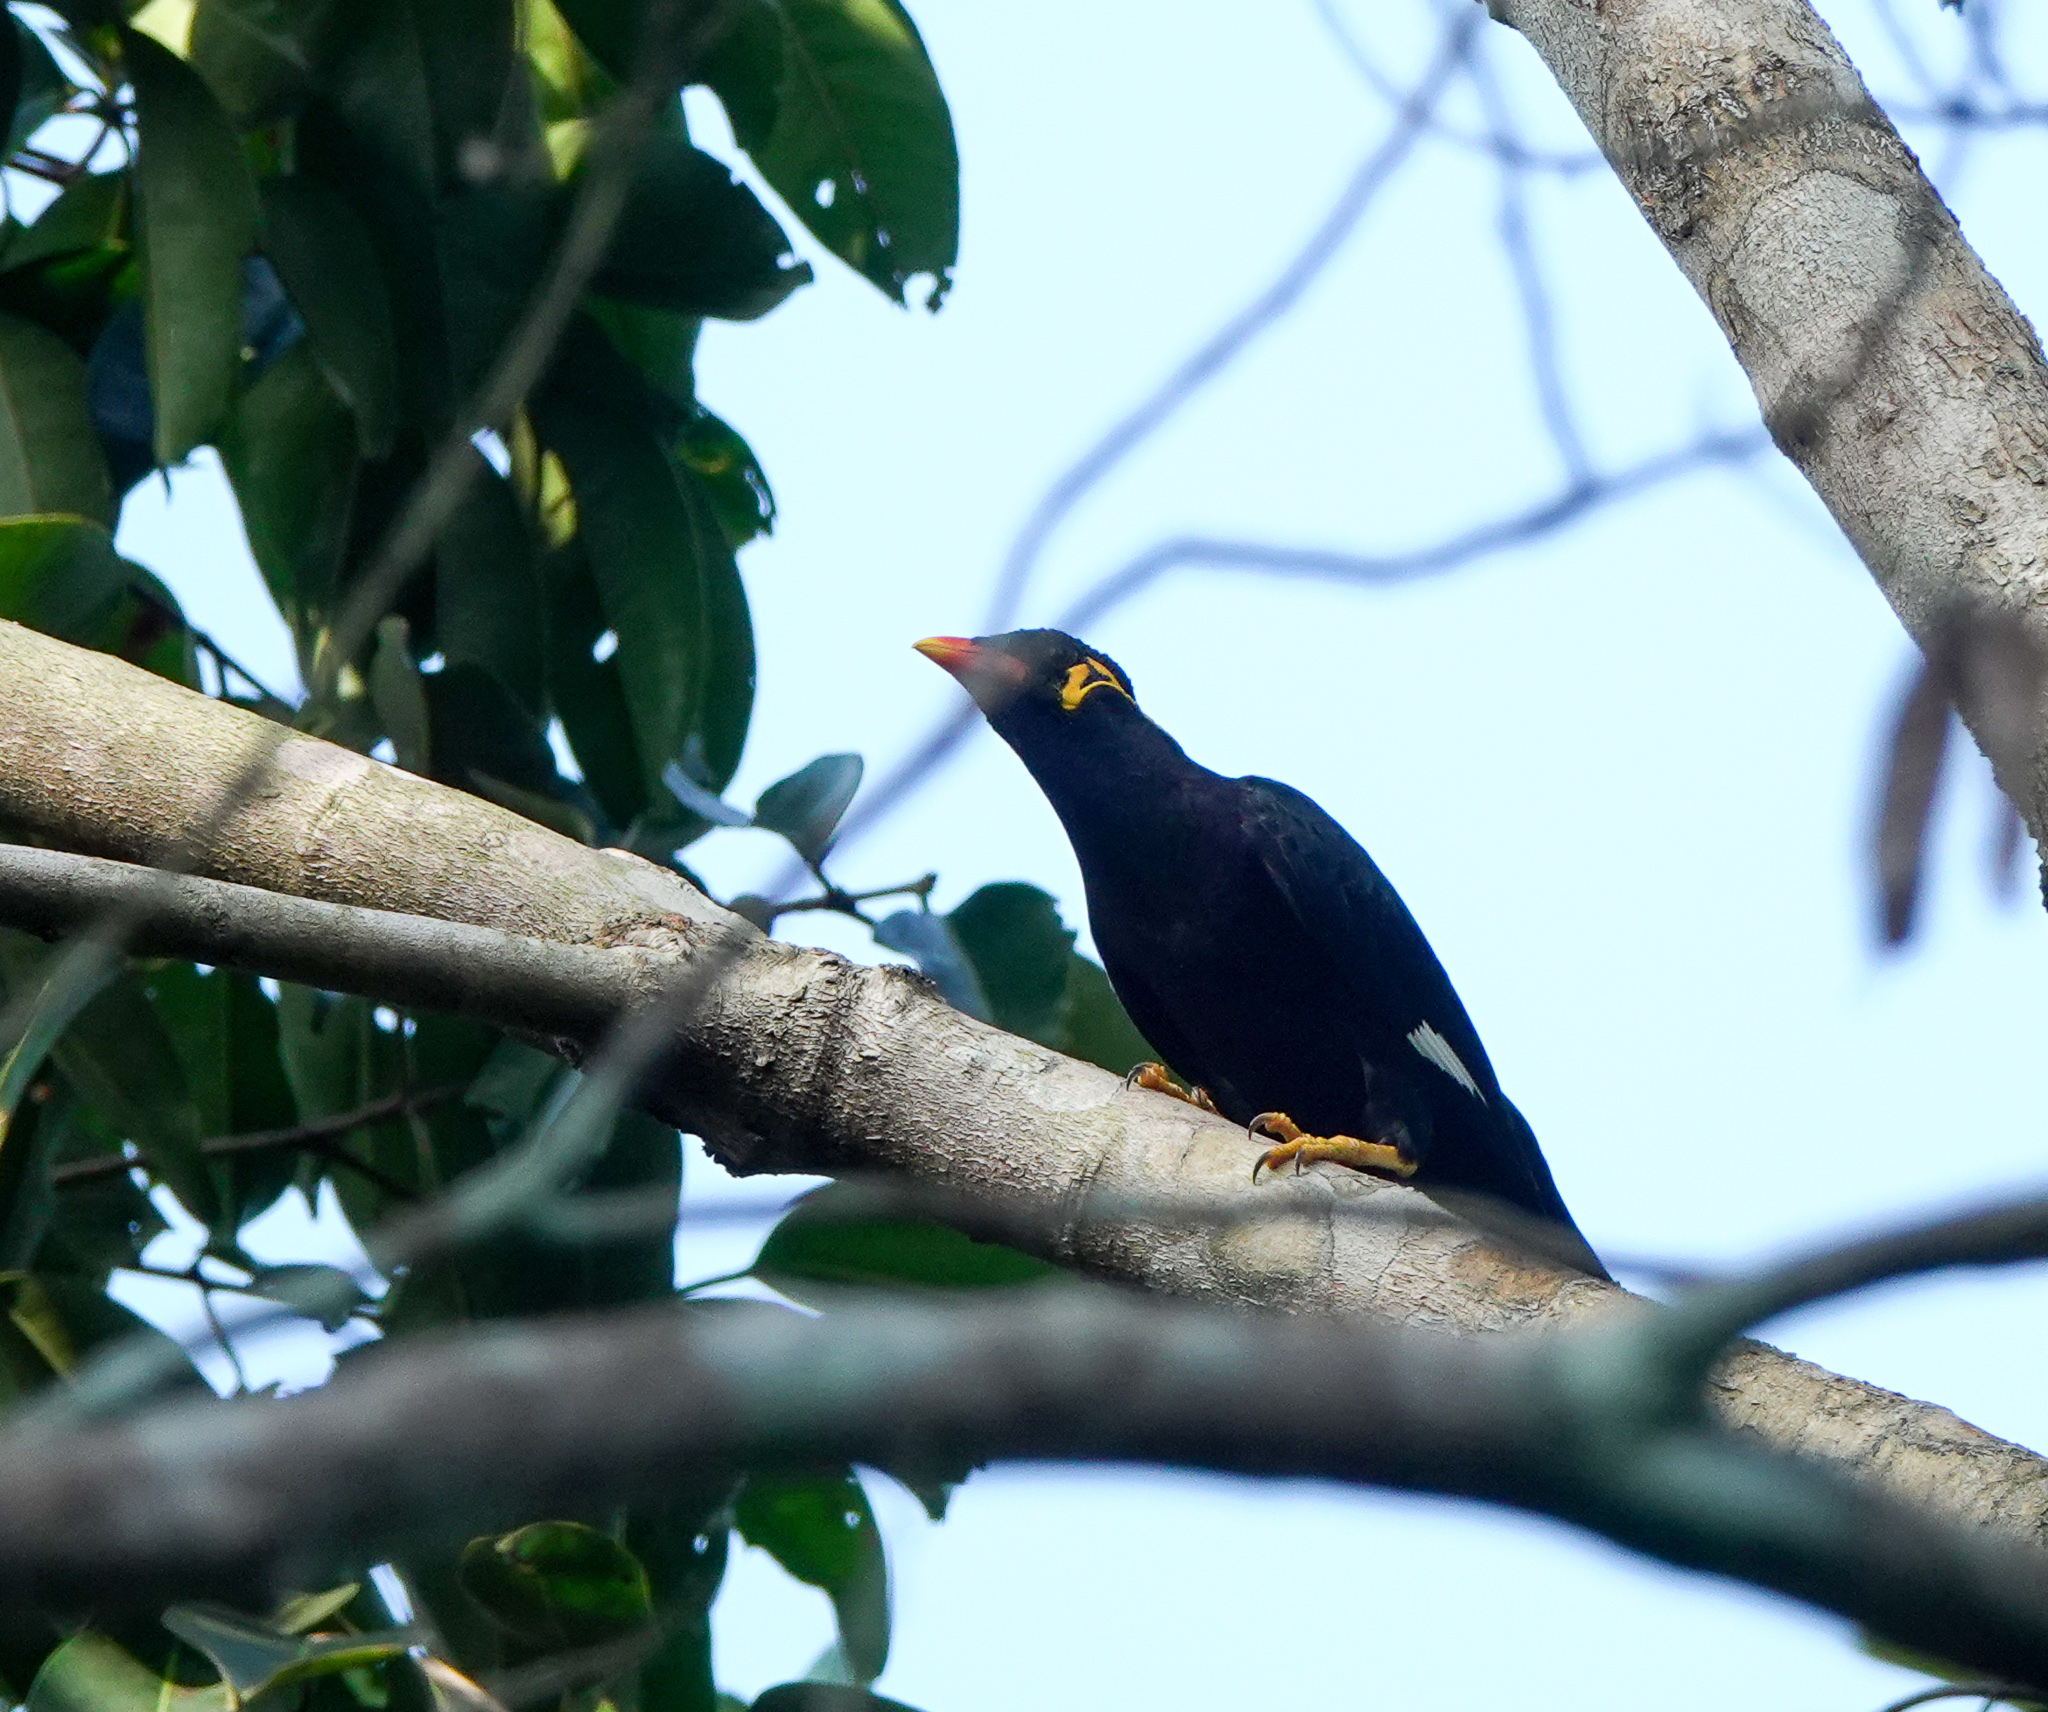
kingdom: Animalia
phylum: Chordata
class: Aves
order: Passeriformes
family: Sturnidae
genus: Gracula
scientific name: Gracula religiosa
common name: Common hill myna
